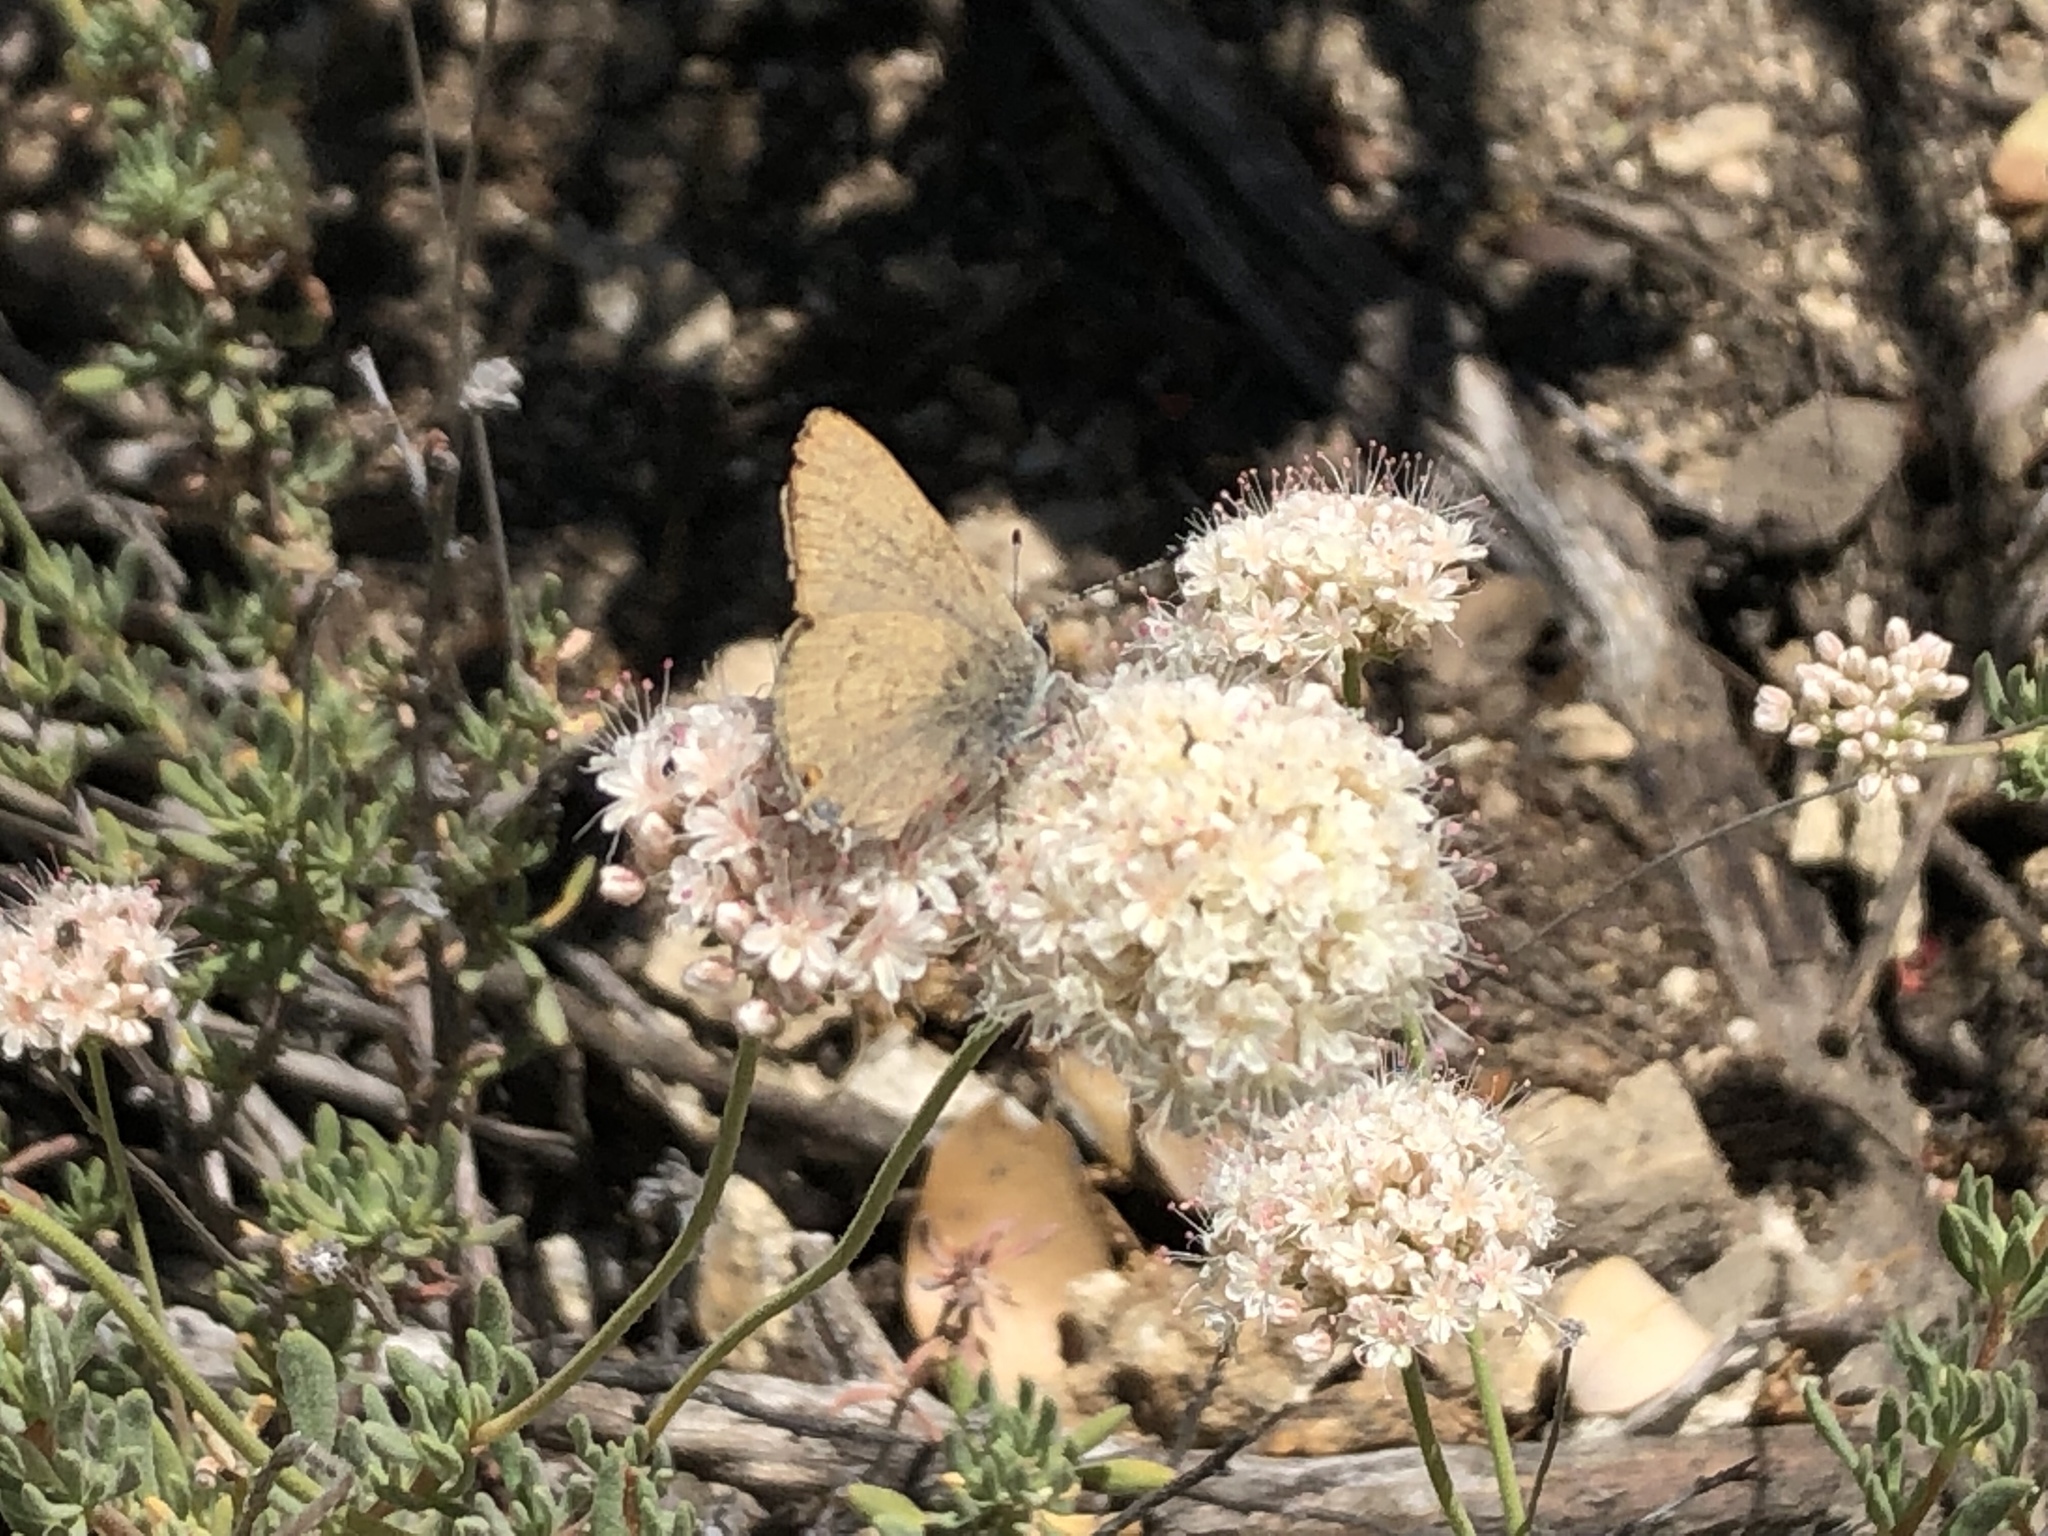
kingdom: Animalia
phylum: Arthropoda
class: Insecta
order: Lepidoptera
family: Lycaenidae
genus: Satyrium
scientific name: Satyrium calanus
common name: Banded hairstreak
